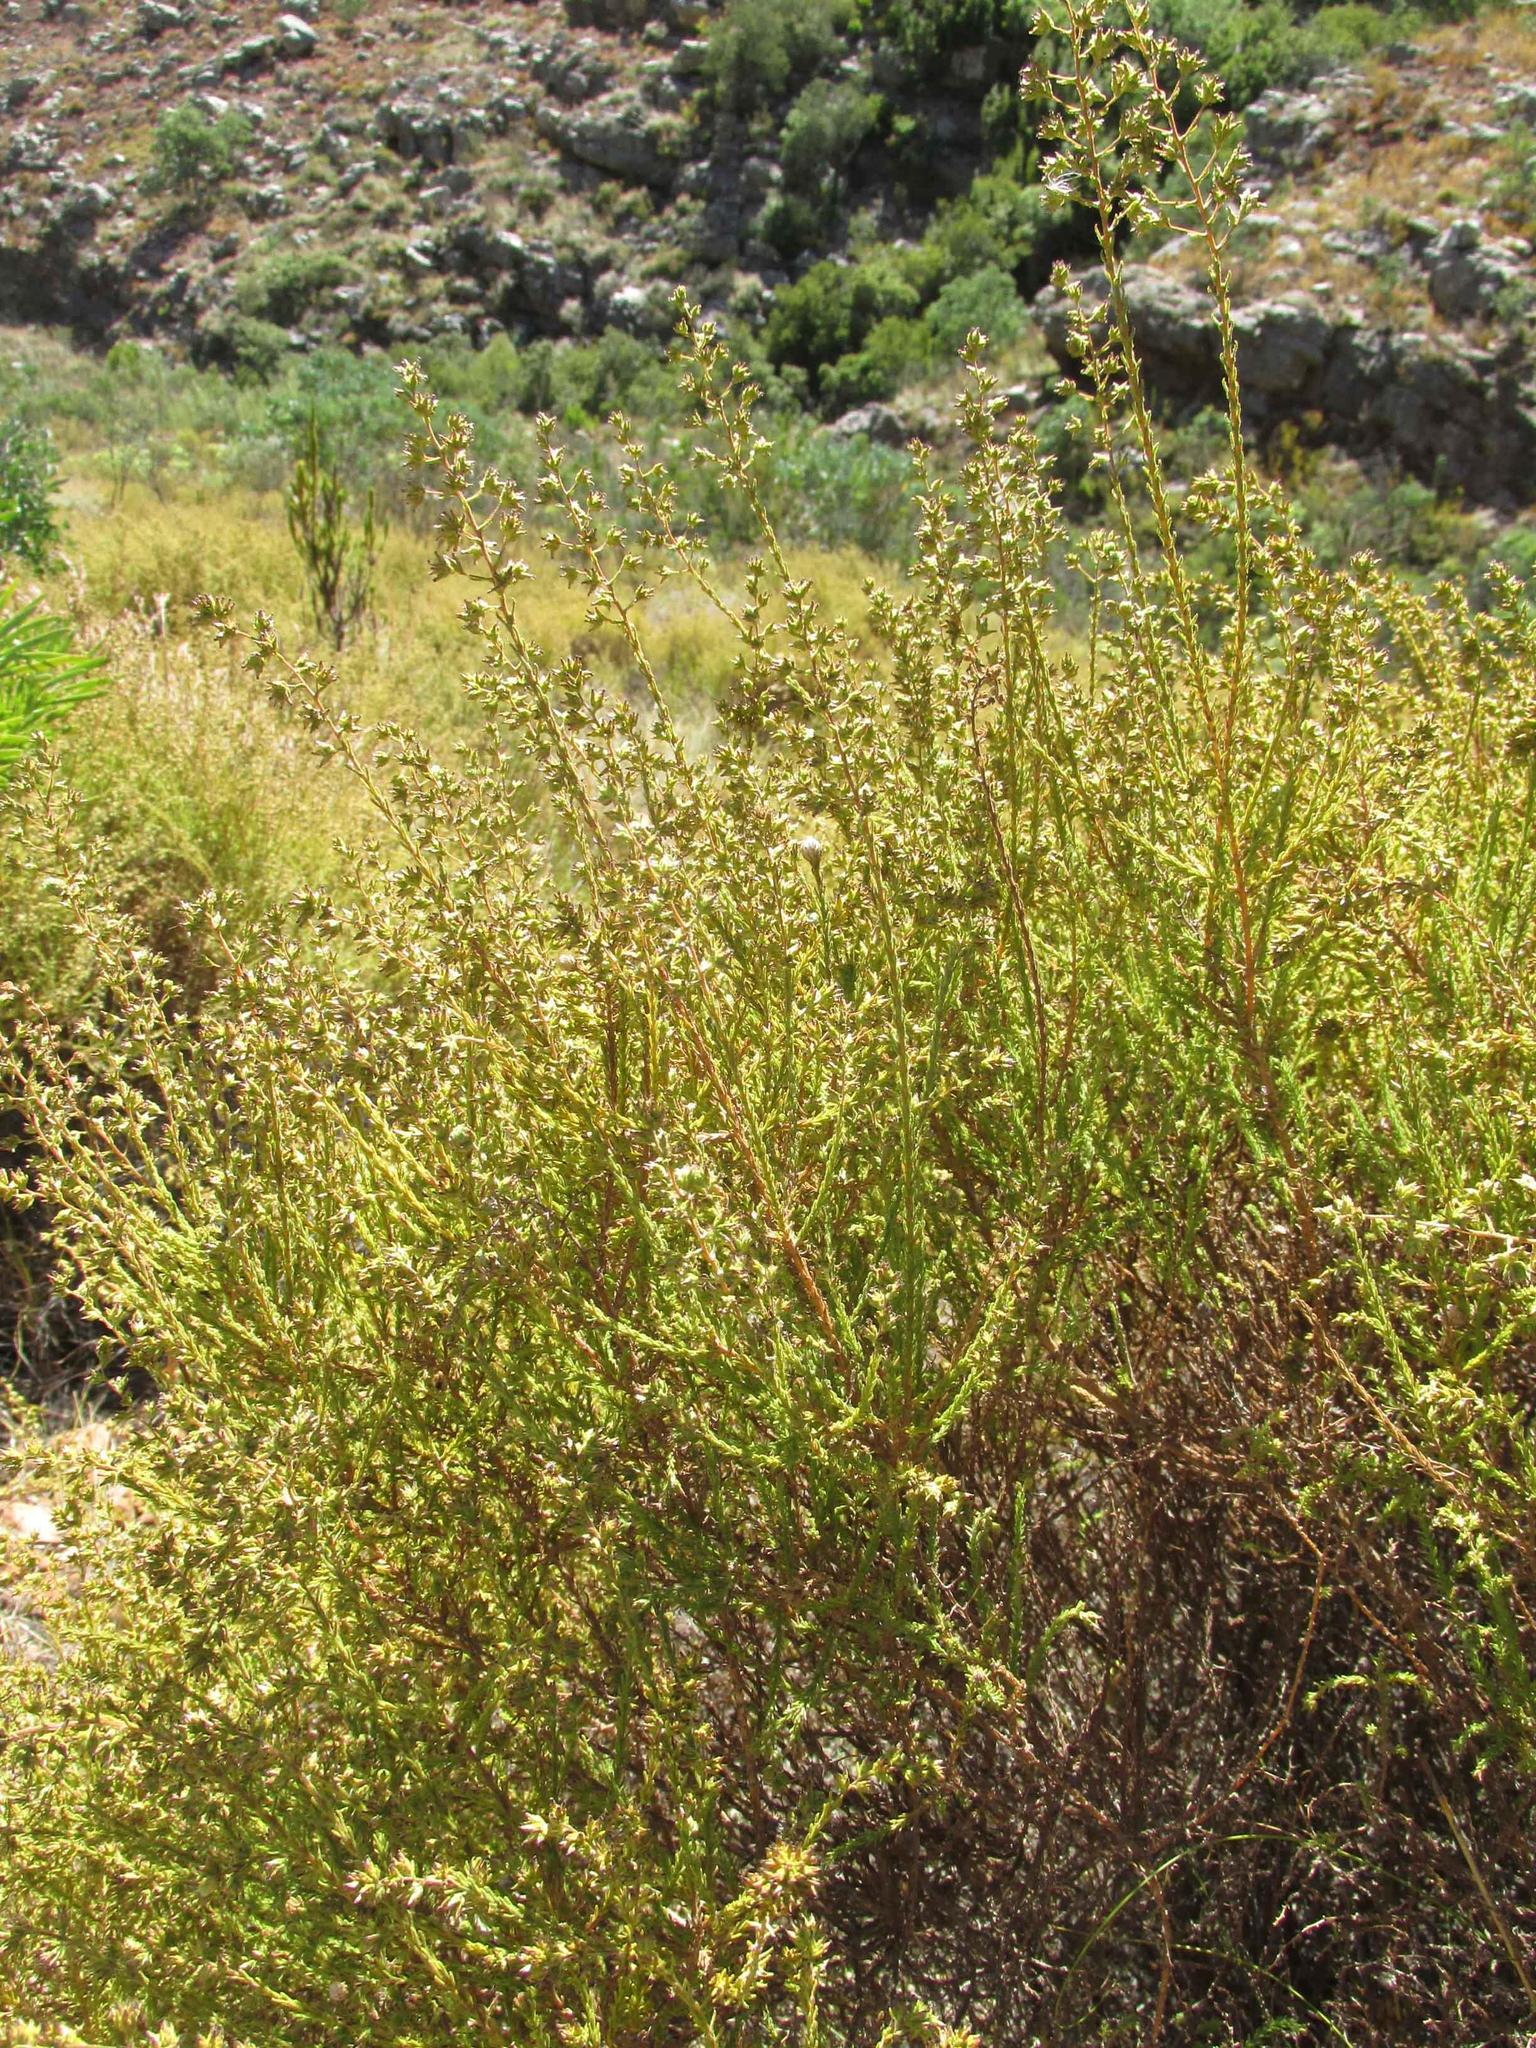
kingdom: Plantae
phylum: Tracheophyta
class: Magnoliopsida
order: Asterales
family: Asteraceae
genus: Myrovernix
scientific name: Myrovernix scaber
